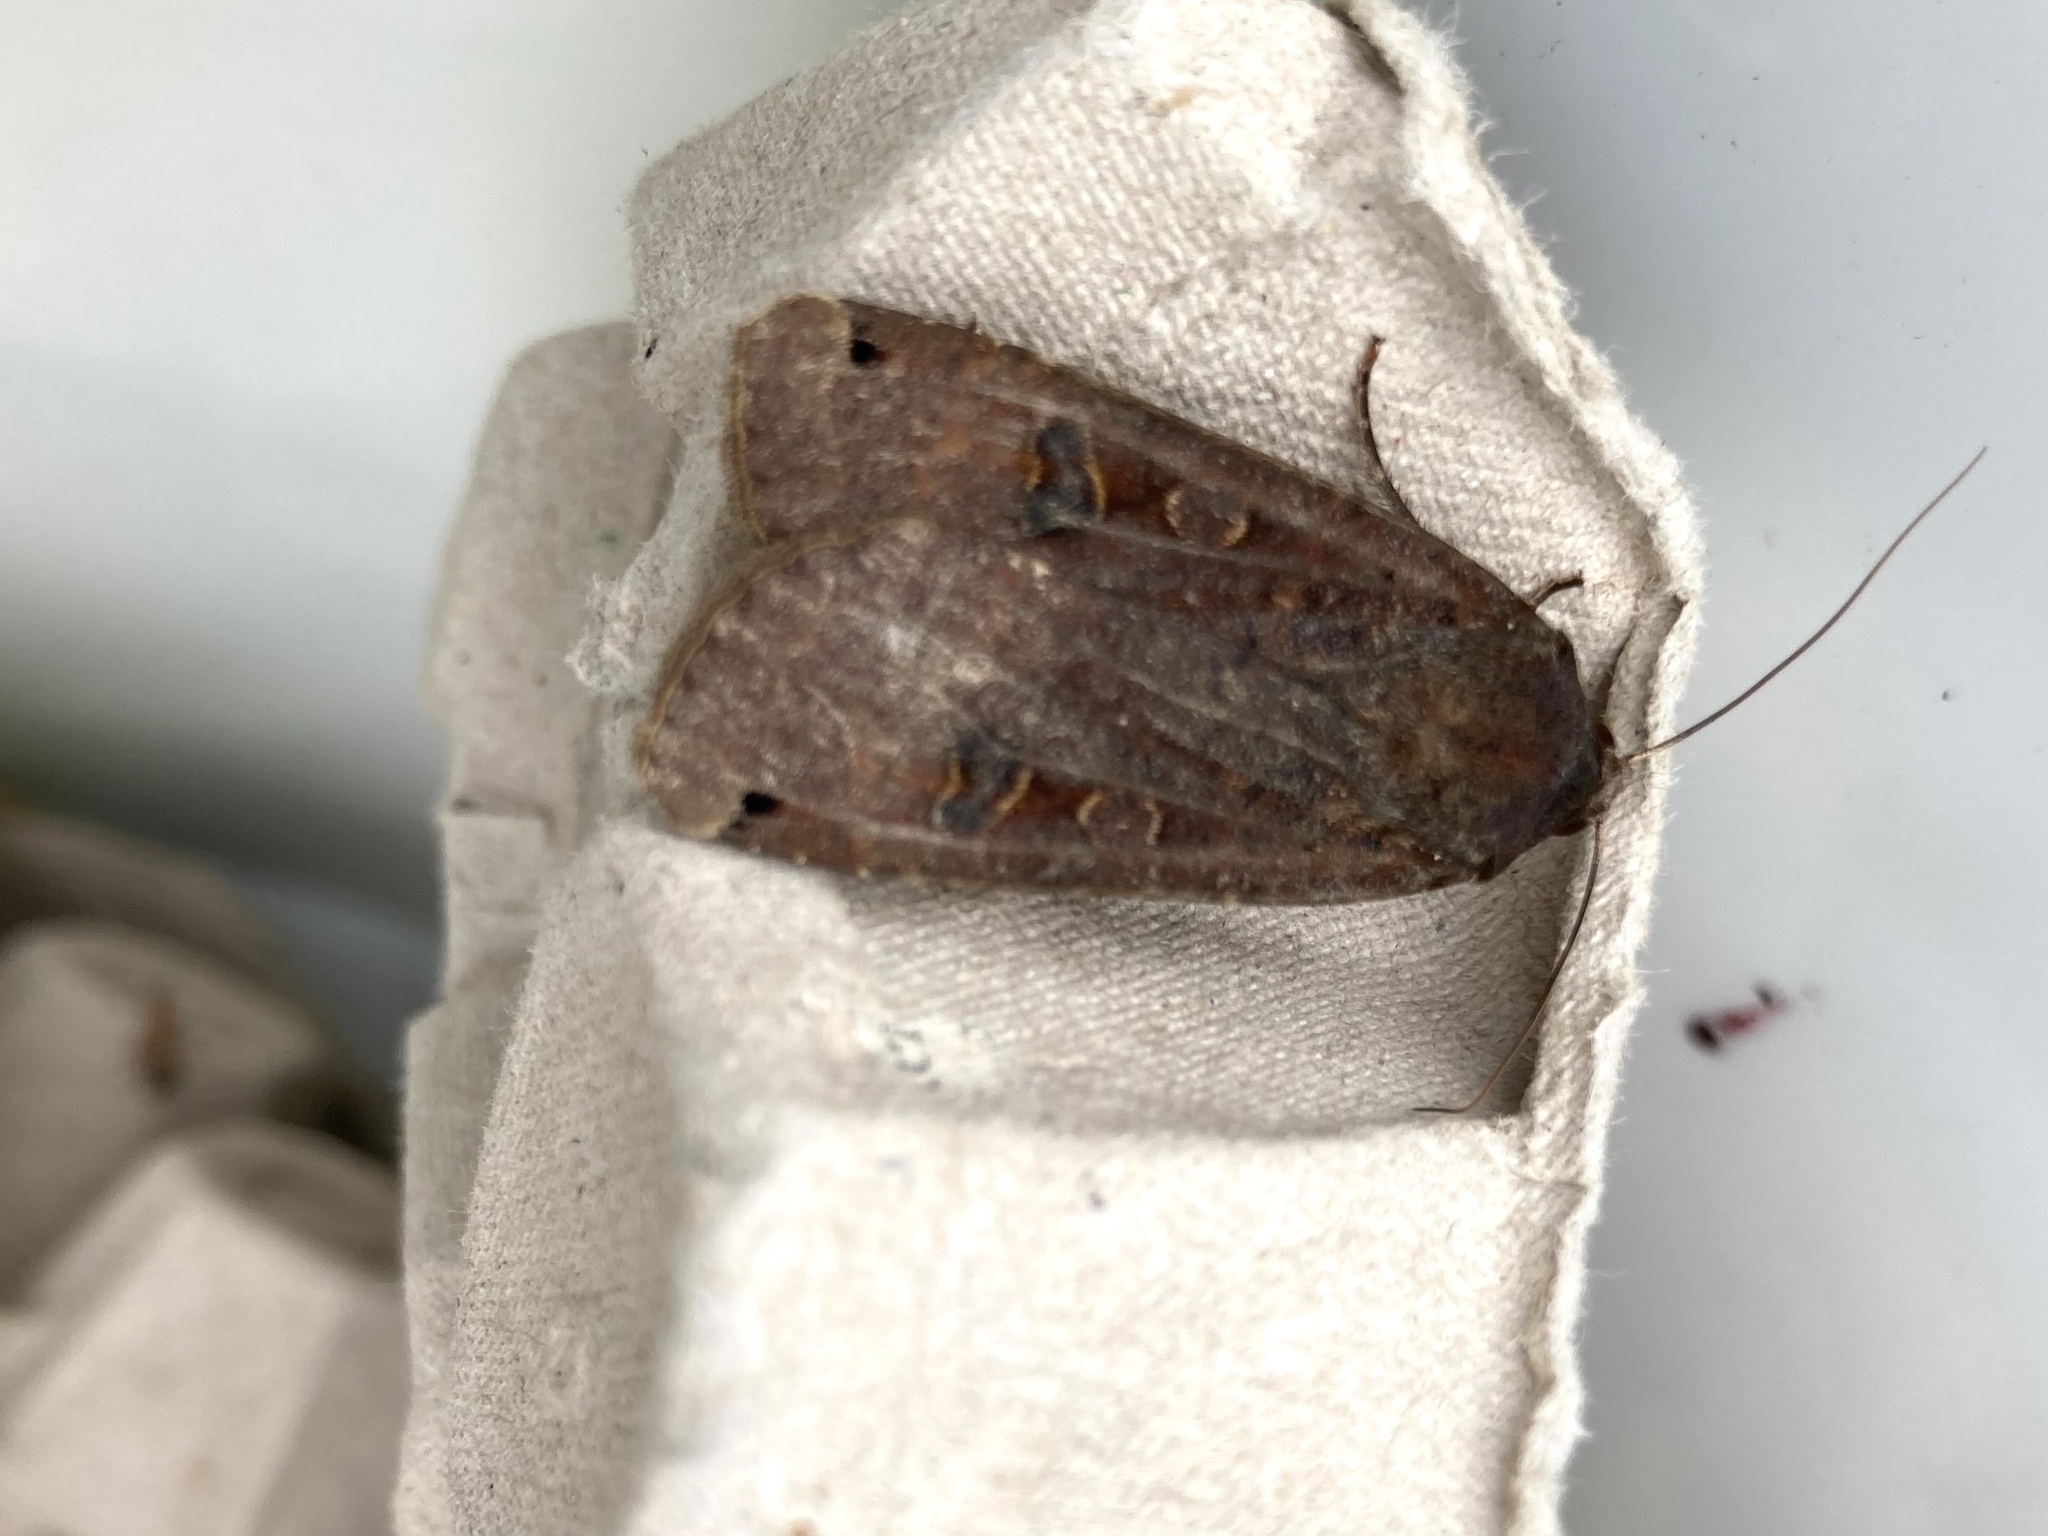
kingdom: Animalia
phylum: Arthropoda
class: Insecta
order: Lepidoptera
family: Noctuidae
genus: Noctua
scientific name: Noctua pronuba
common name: Large yellow underwing
